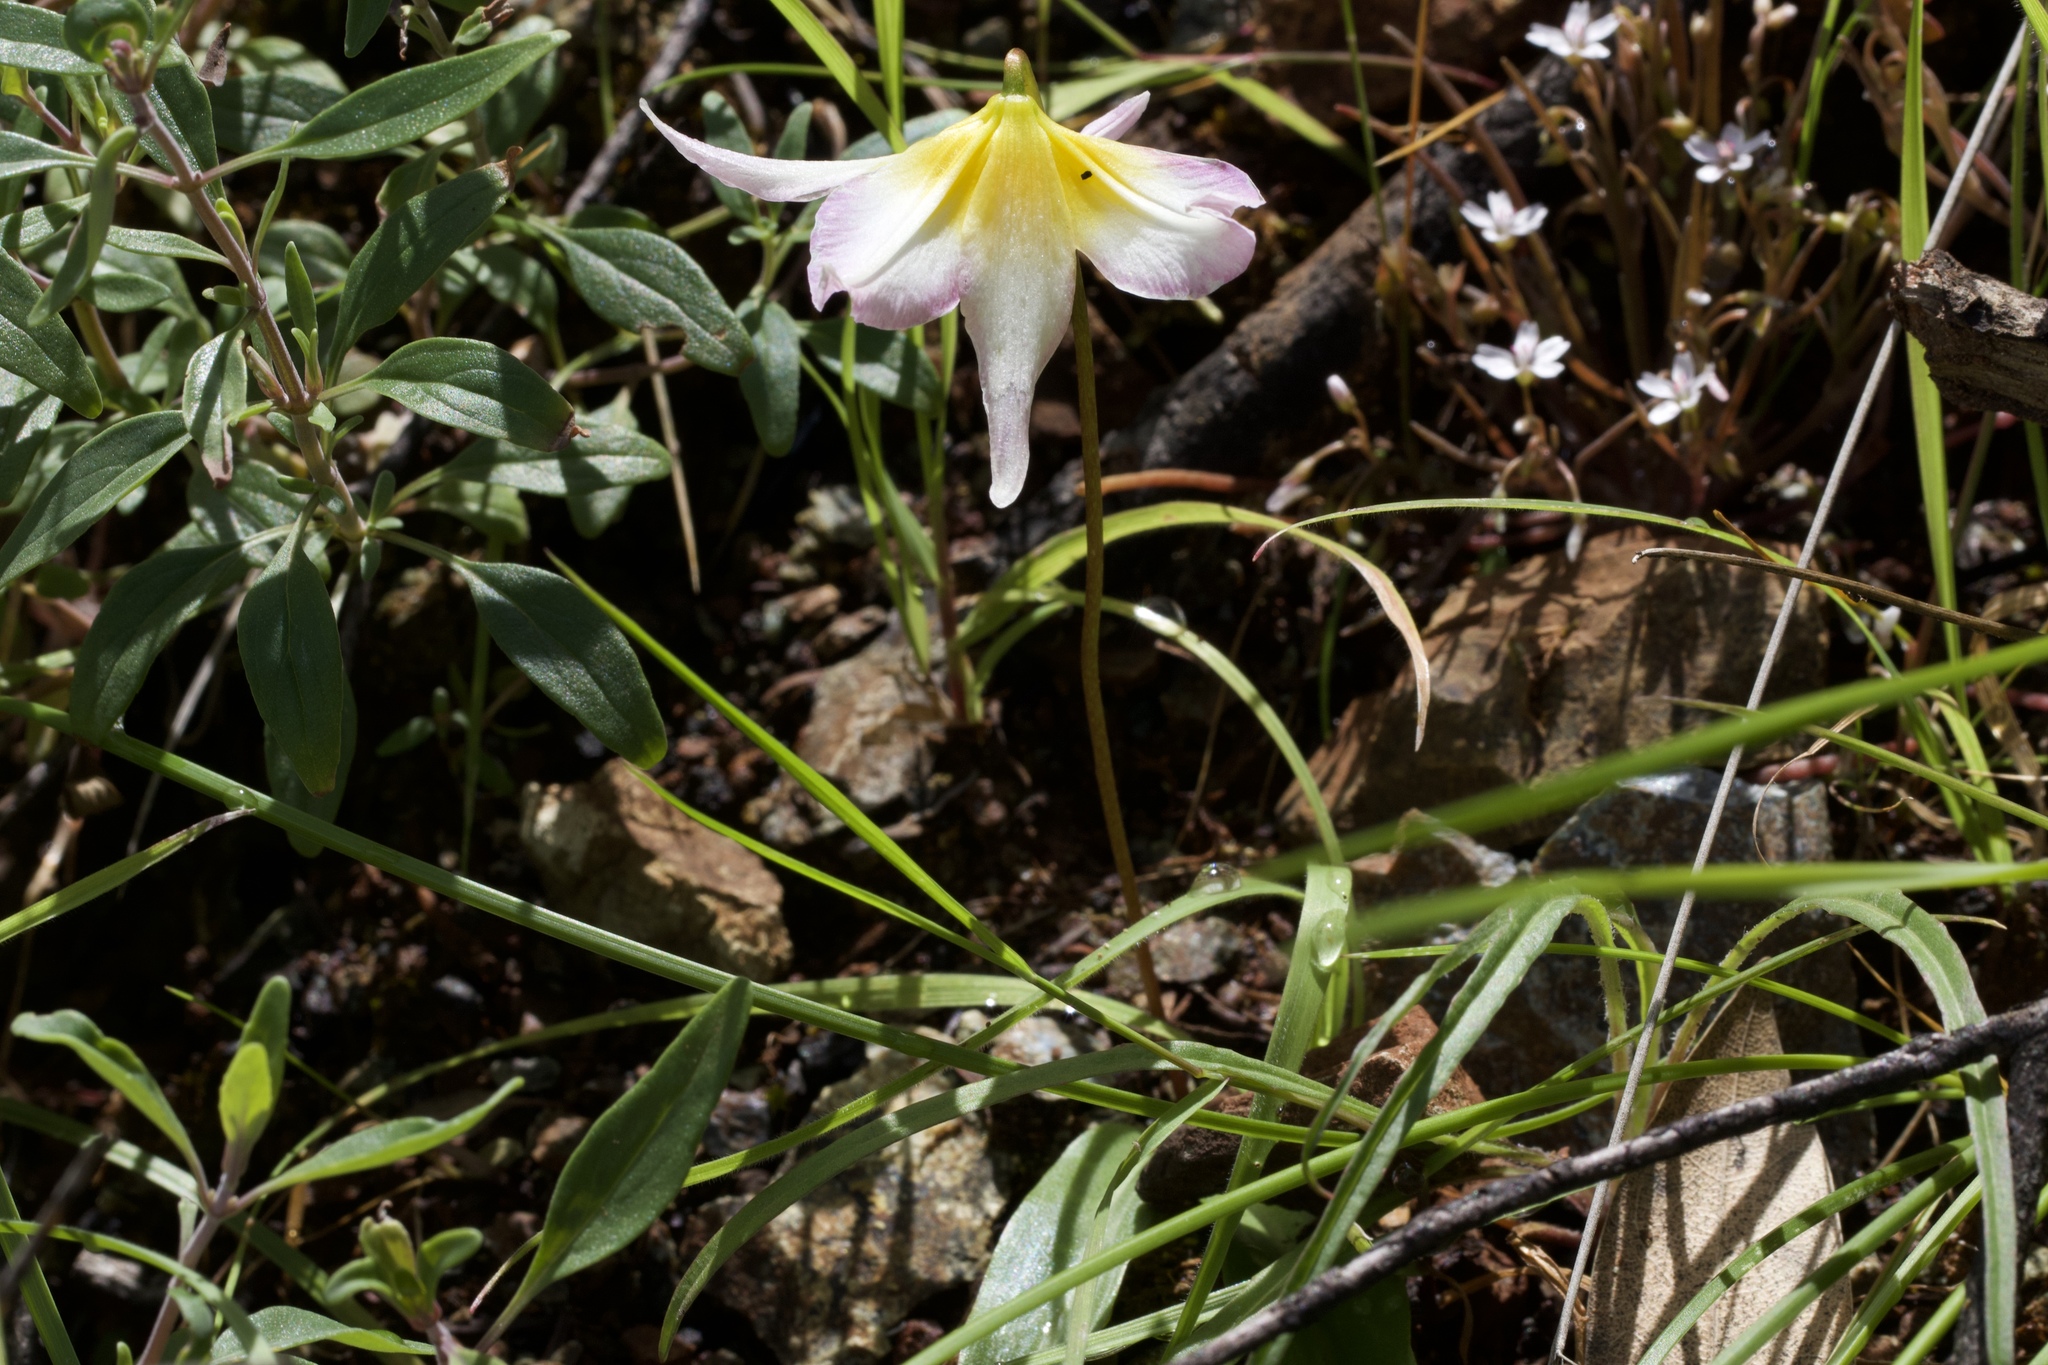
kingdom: Plantae
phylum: Tracheophyta
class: Liliopsida
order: Liliales
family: Liliaceae
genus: Erythronium
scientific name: Erythronium helenae
